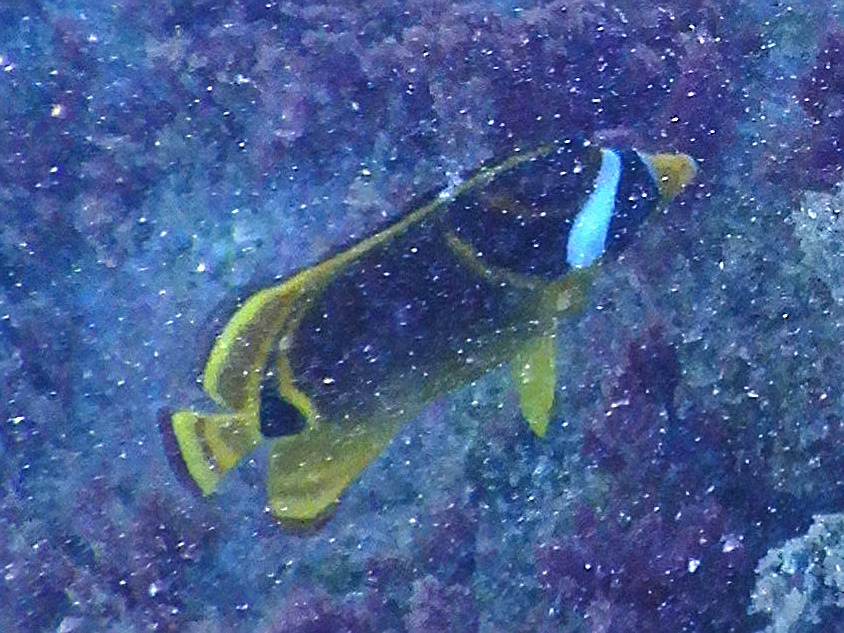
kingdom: Animalia
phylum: Chordata
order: Perciformes
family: Chaetodontidae
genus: Chaetodon
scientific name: Chaetodon lunula
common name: Raccoon butterflyfish
